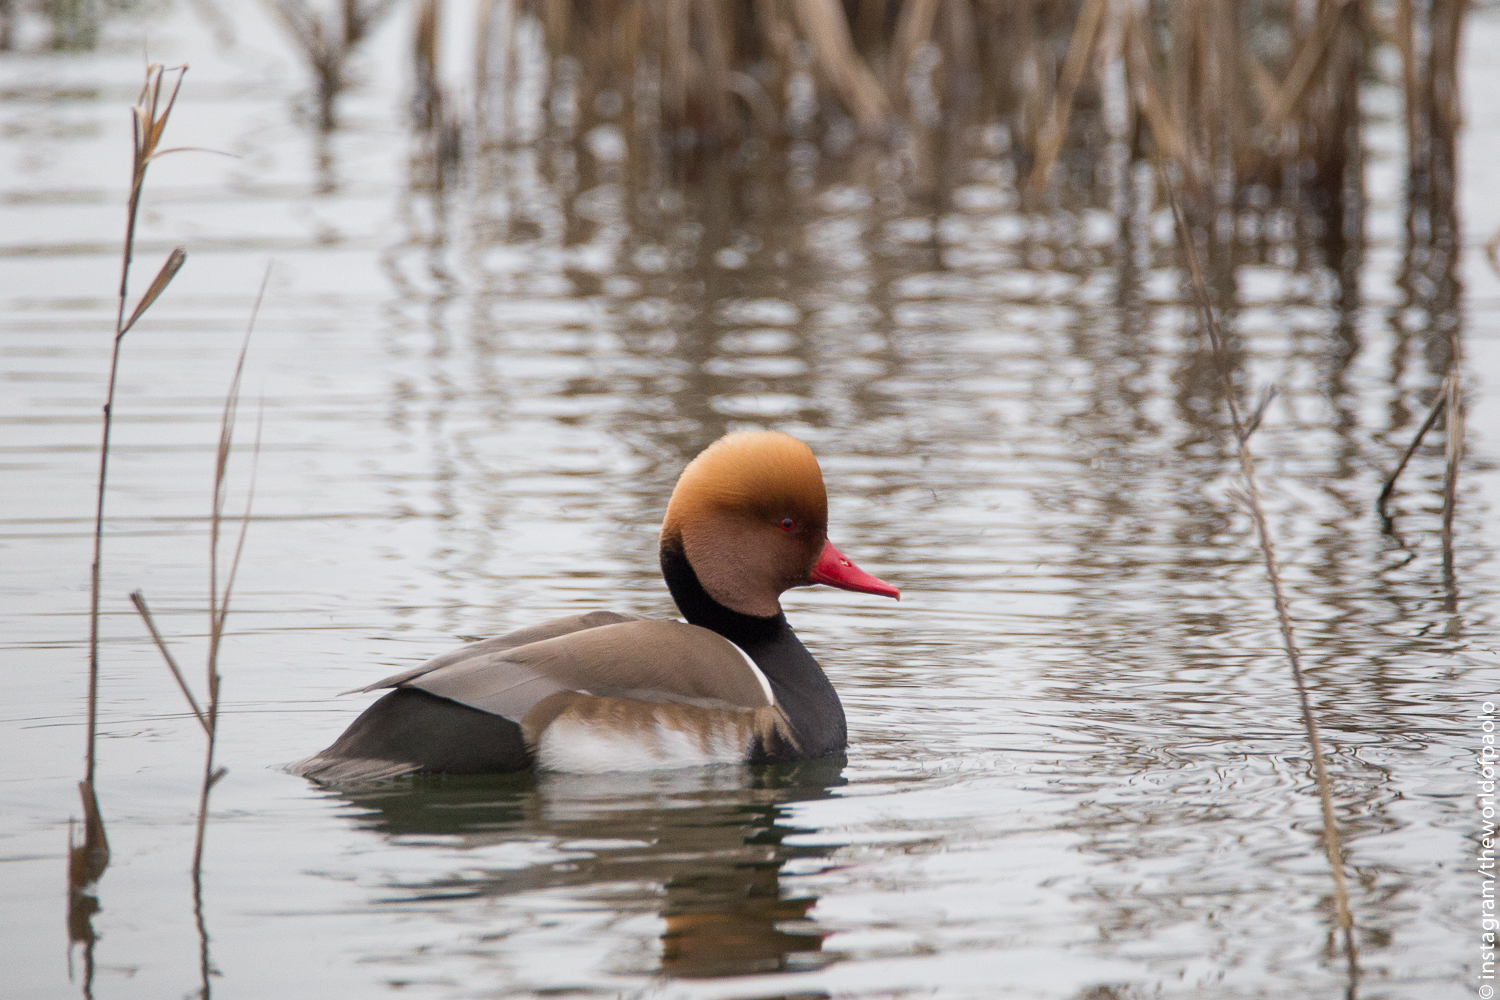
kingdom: Animalia
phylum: Chordata
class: Aves
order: Anseriformes
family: Anatidae
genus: Netta
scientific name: Netta rufina
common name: Red-crested pochard
